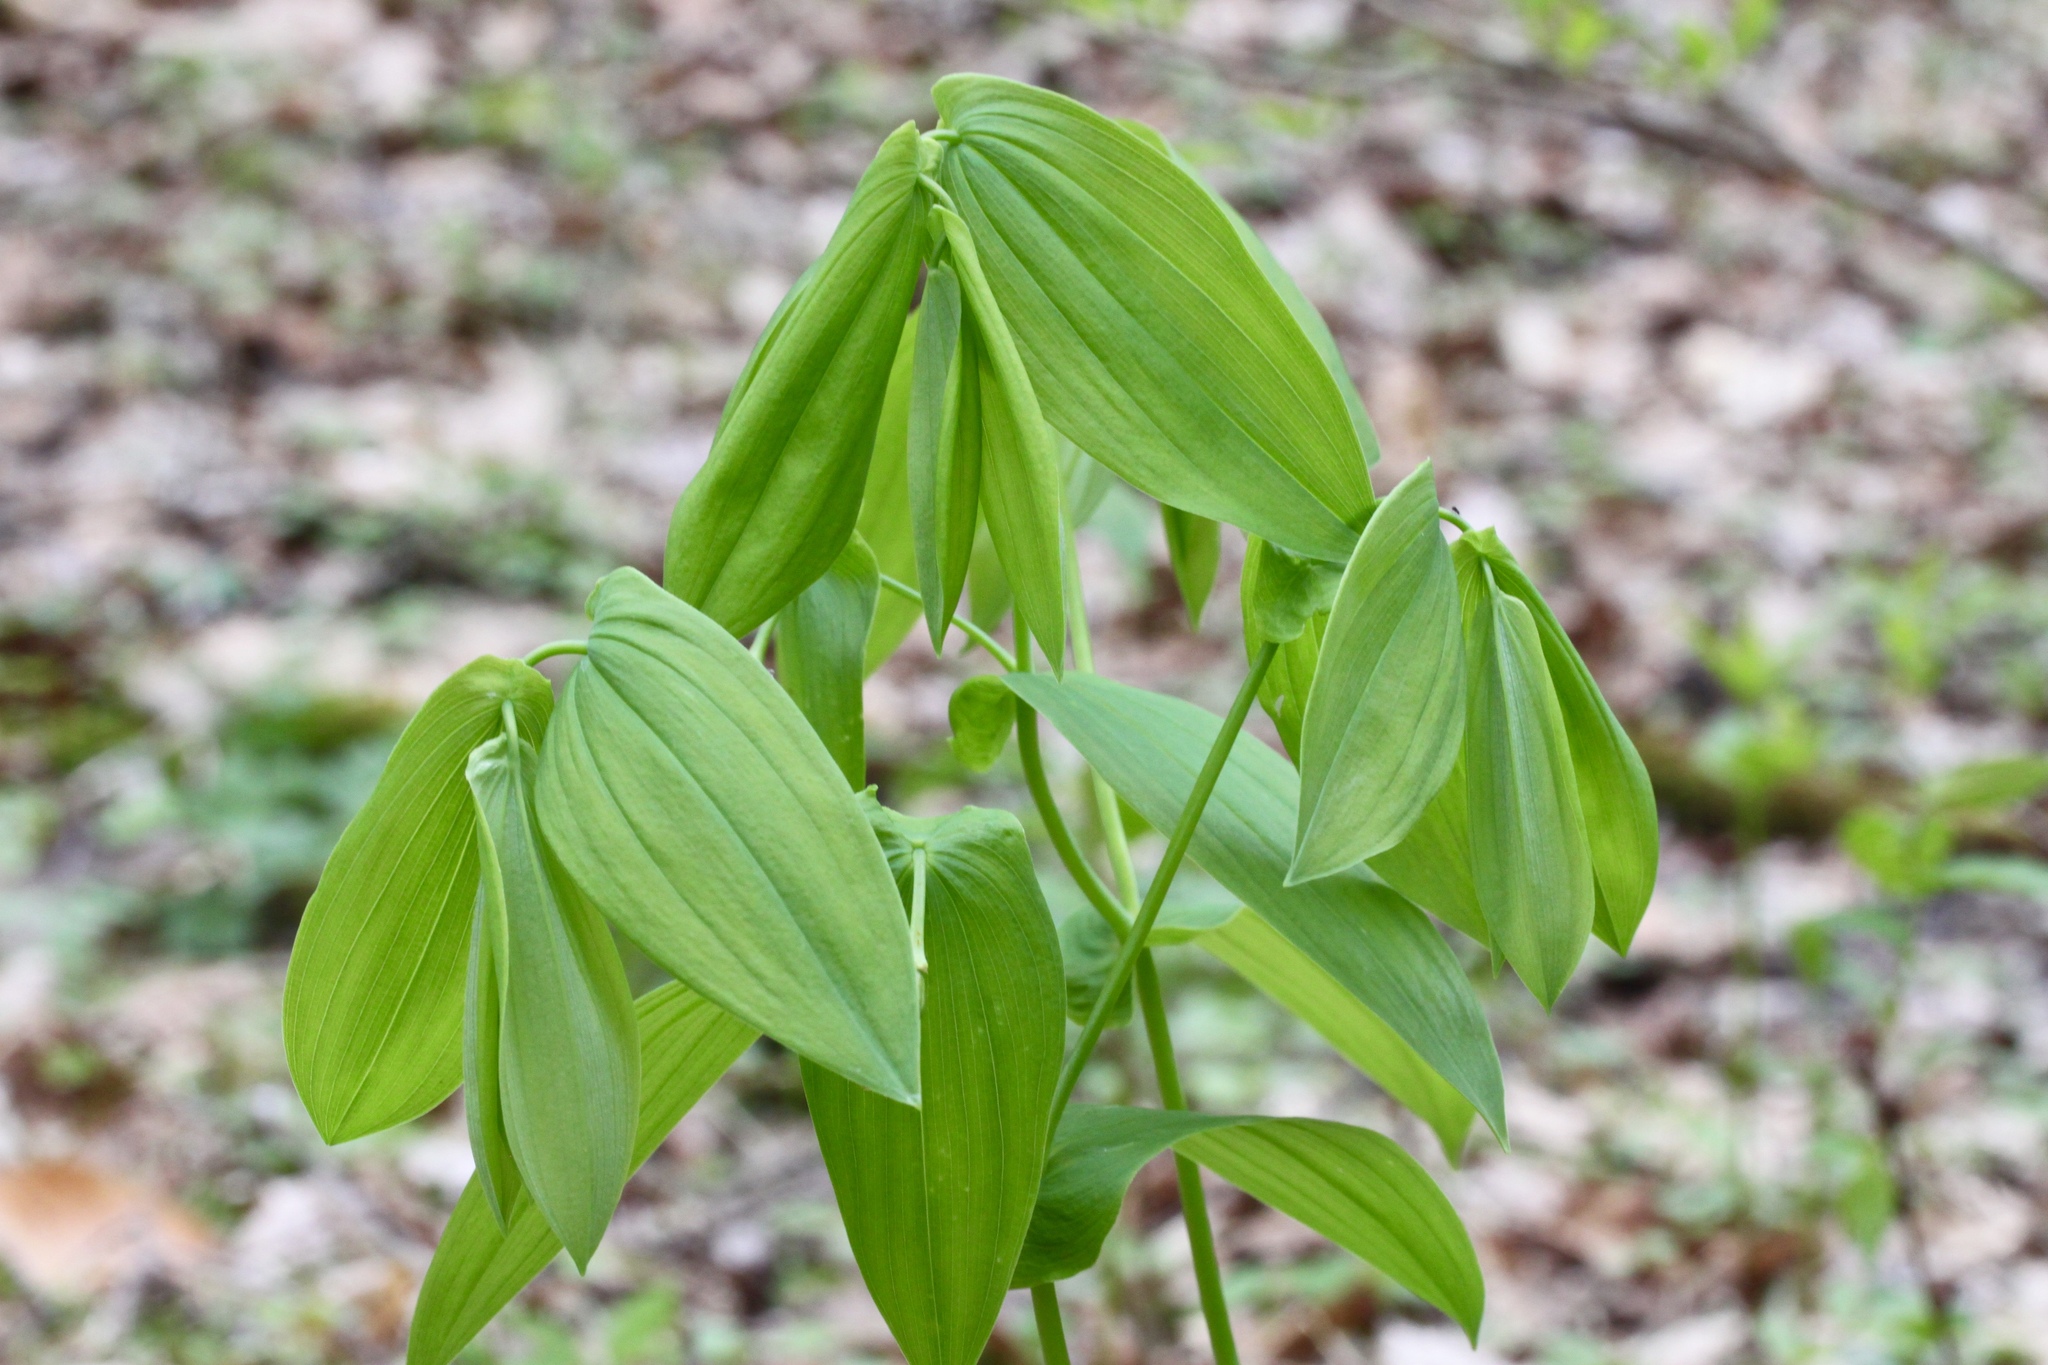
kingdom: Plantae
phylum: Tracheophyta
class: Liliopsida
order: Liliales
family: Colchicaceae
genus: Uvularia
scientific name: Uvularia grandiflora
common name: Bellwort
